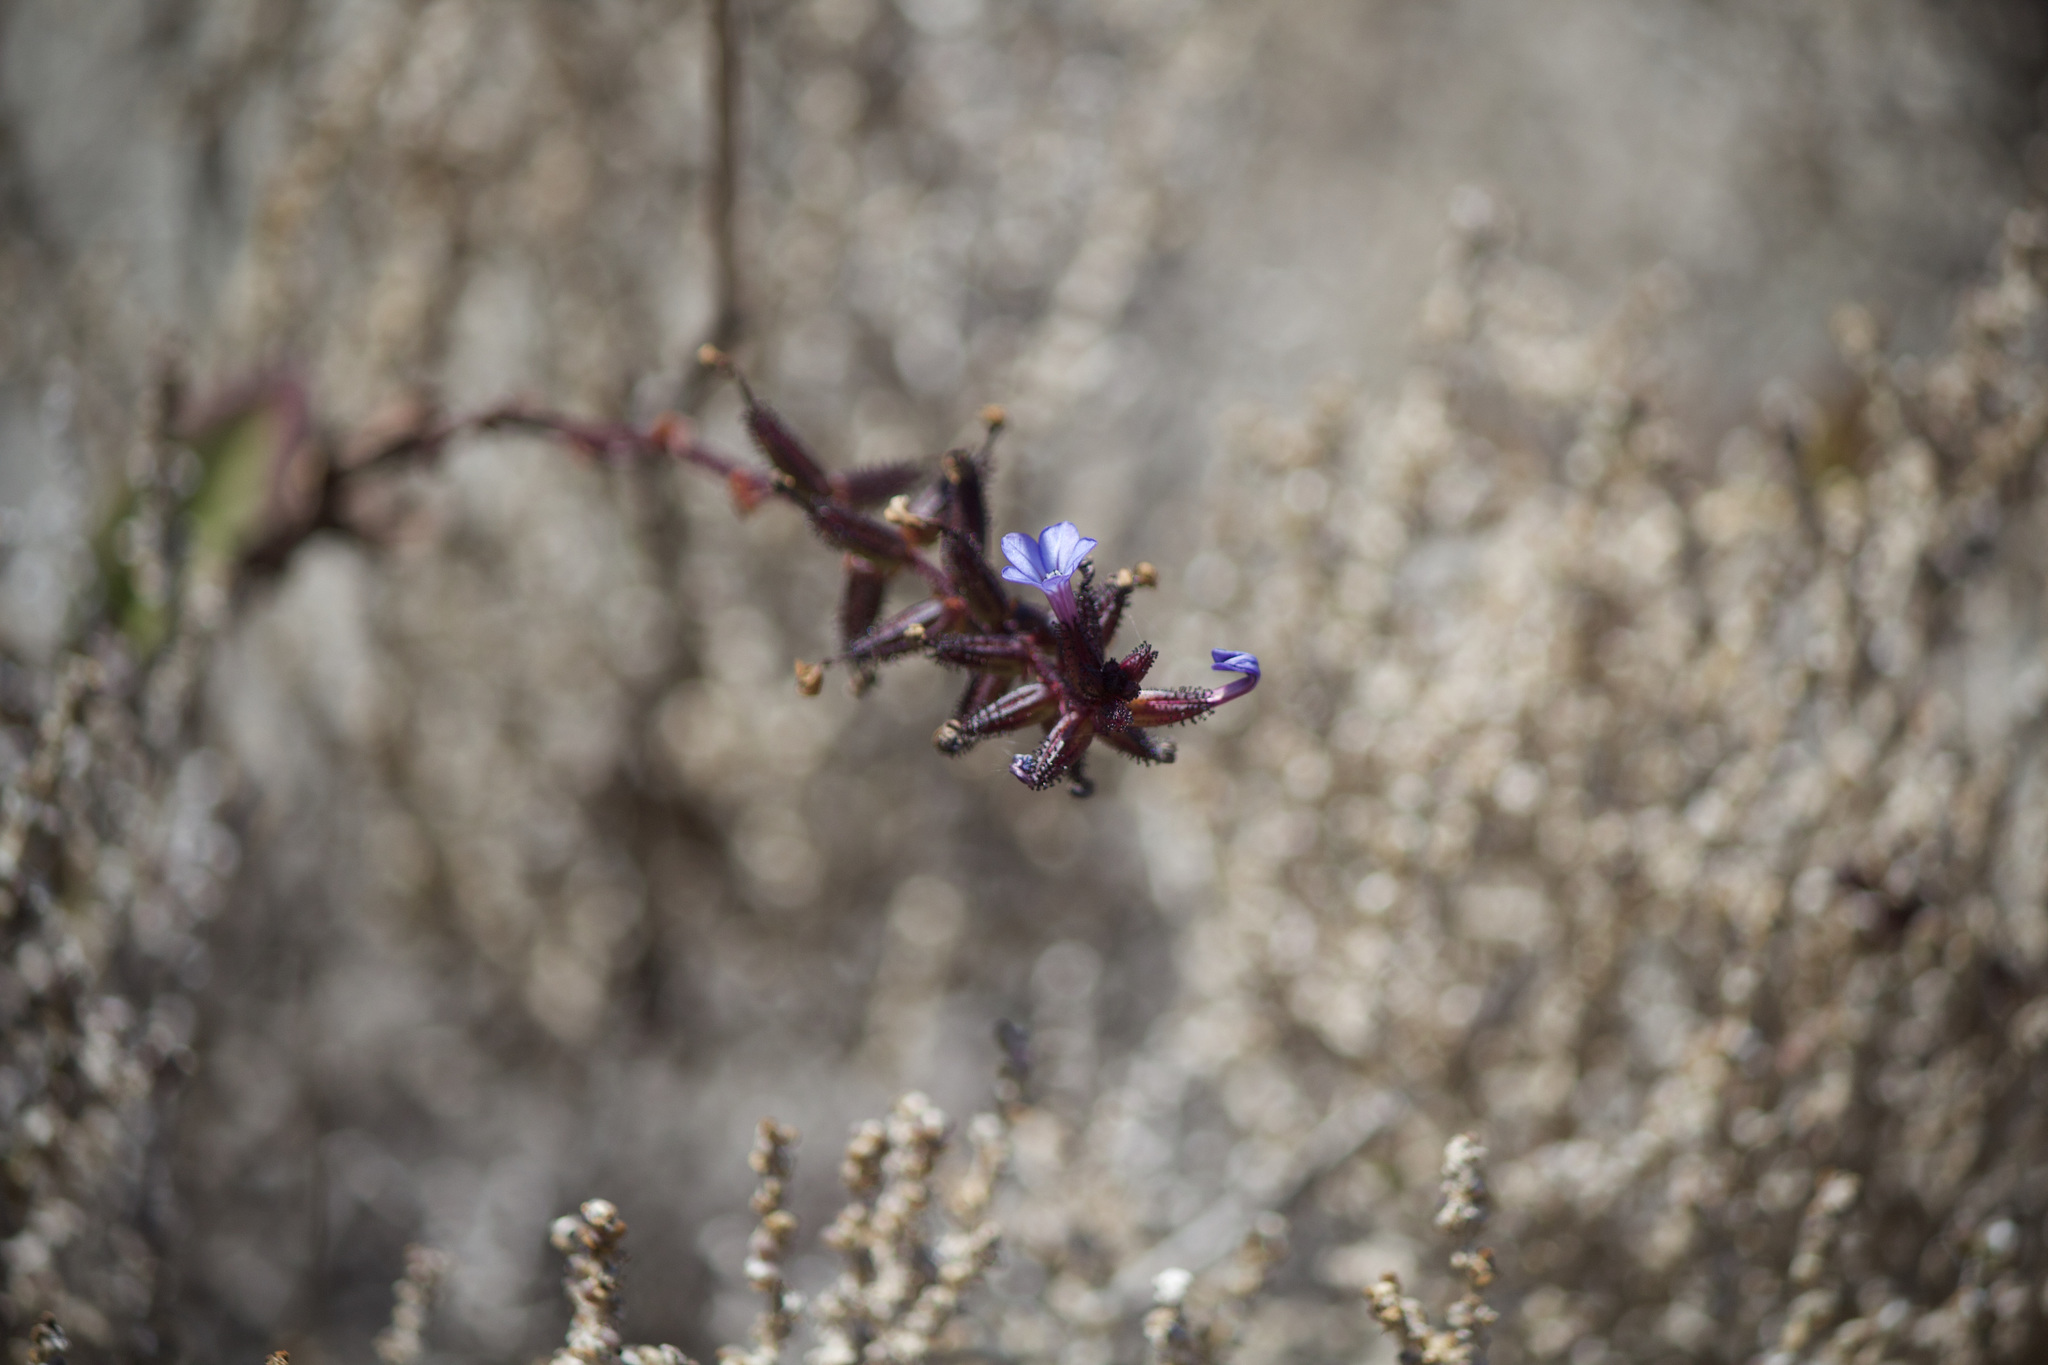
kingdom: Plantae
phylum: Tracheophyta
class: Magnoliopsida
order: Caryophyllales
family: Plumbaginaceae
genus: Plumbago
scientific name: Plumbago caerulea
